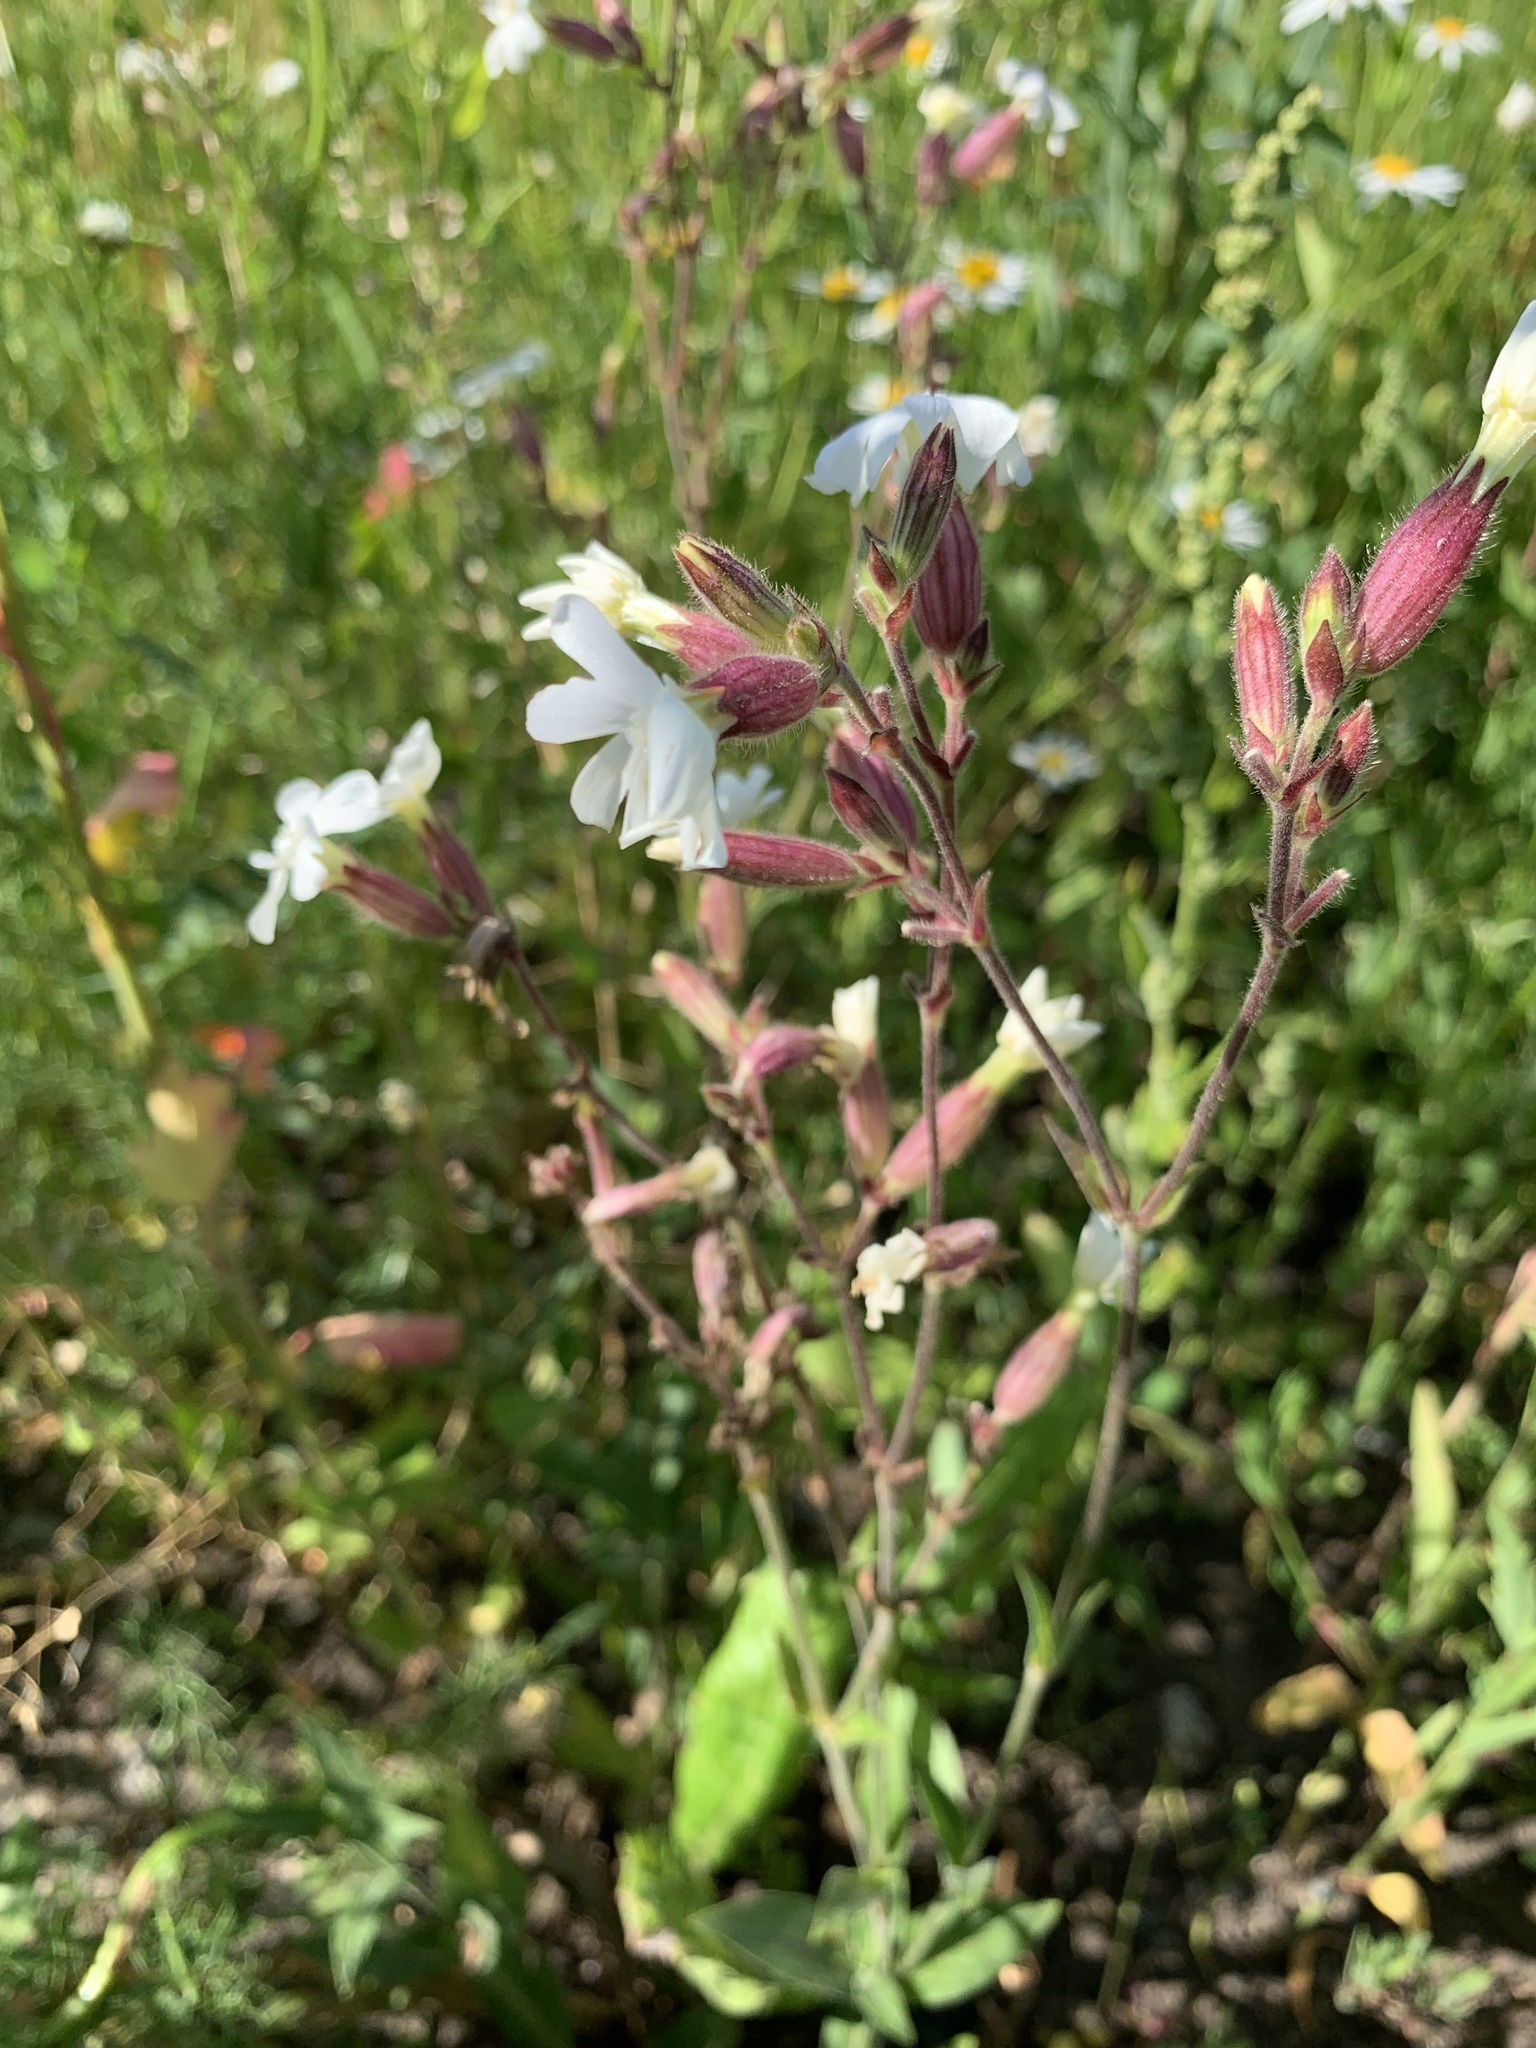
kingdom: Plantae
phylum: Tracheophyta
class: Magnoliopsida
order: Caryophyllales
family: Caryophyllaceae
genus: Silene
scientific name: Silene latifolia
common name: White campion
